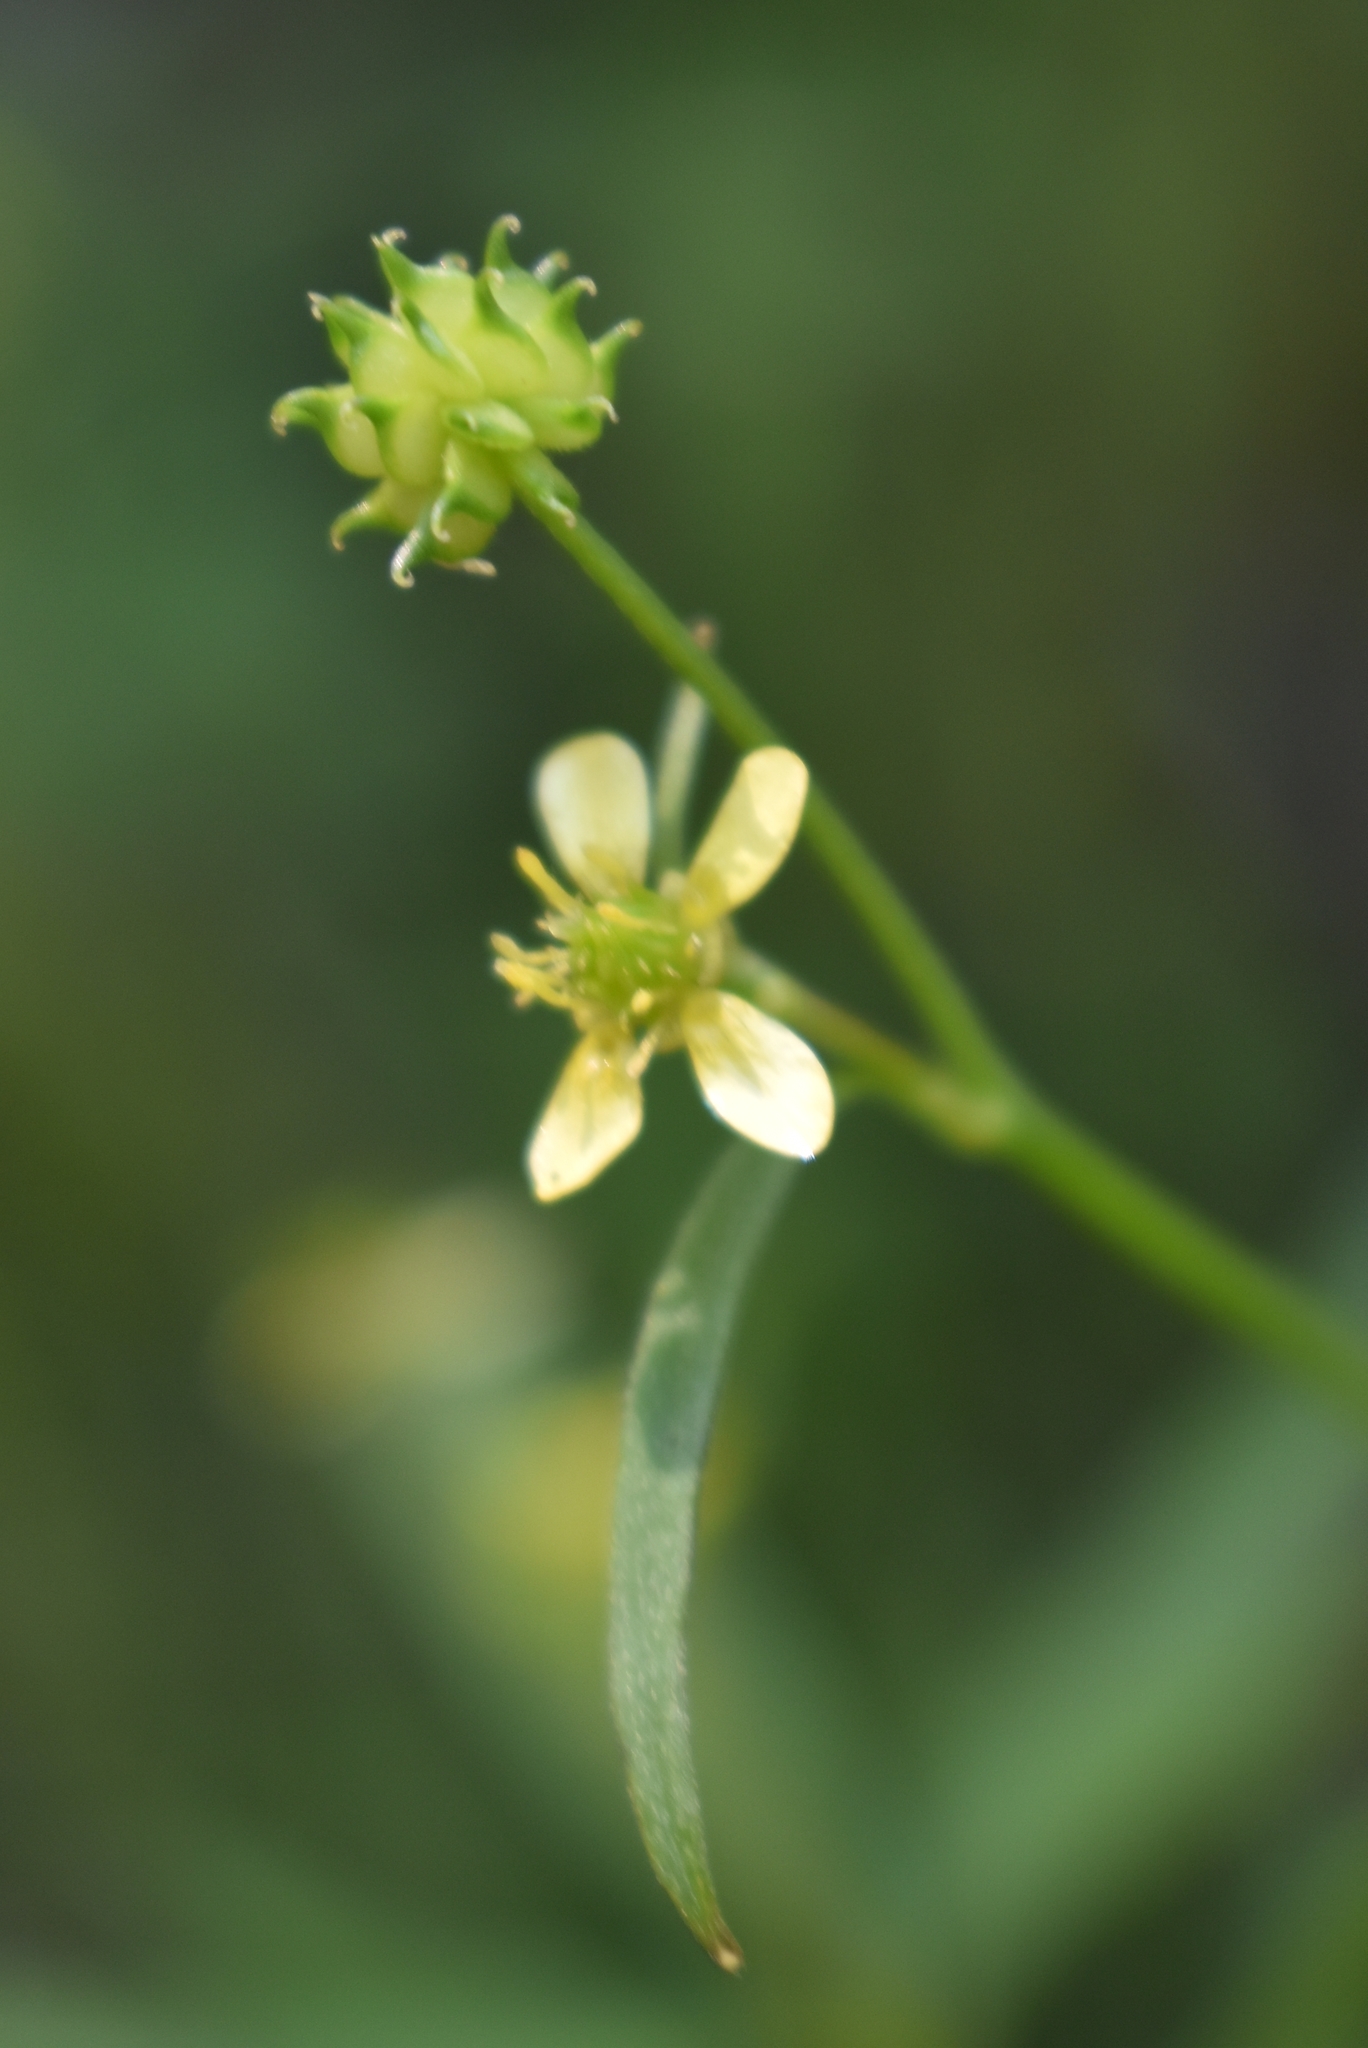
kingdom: Plantae
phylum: Tracheophyta
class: Magnoliopsida
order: Ranunculales
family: Ranunculaceae
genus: Ranunculus
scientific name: Ranunculus uncinatus
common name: Little buttercup
